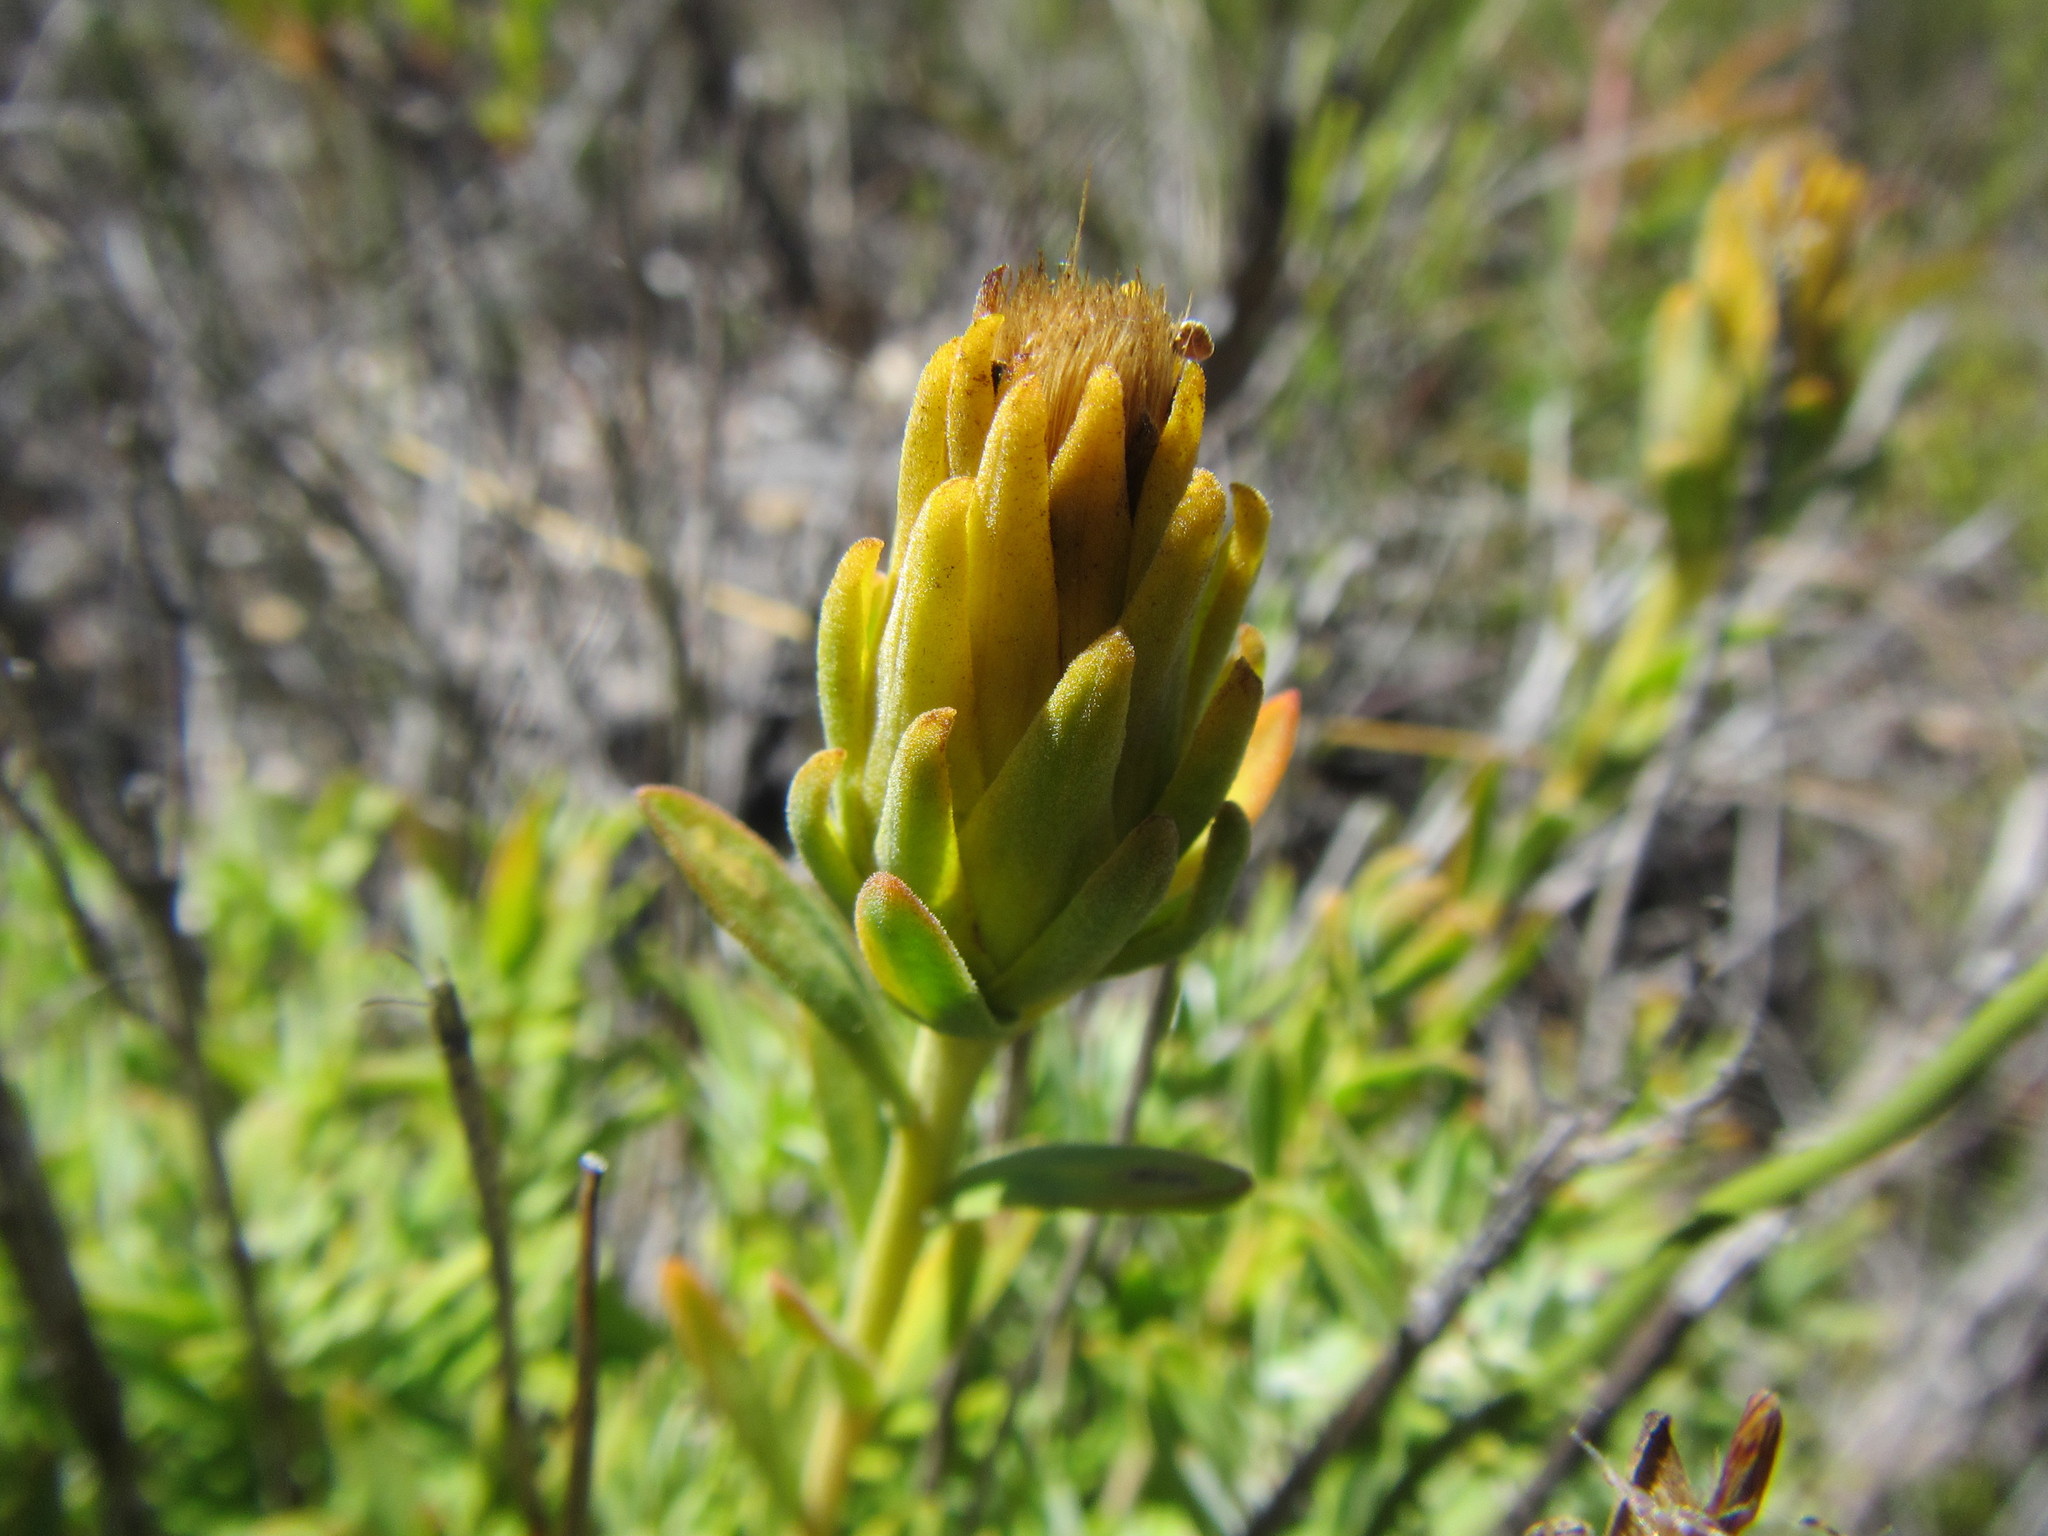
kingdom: Plantae
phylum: Tracheophyta
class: Magnoliopsida
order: Asterales
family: Asteraceae
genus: Pteronia
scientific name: Pteronia scabra
